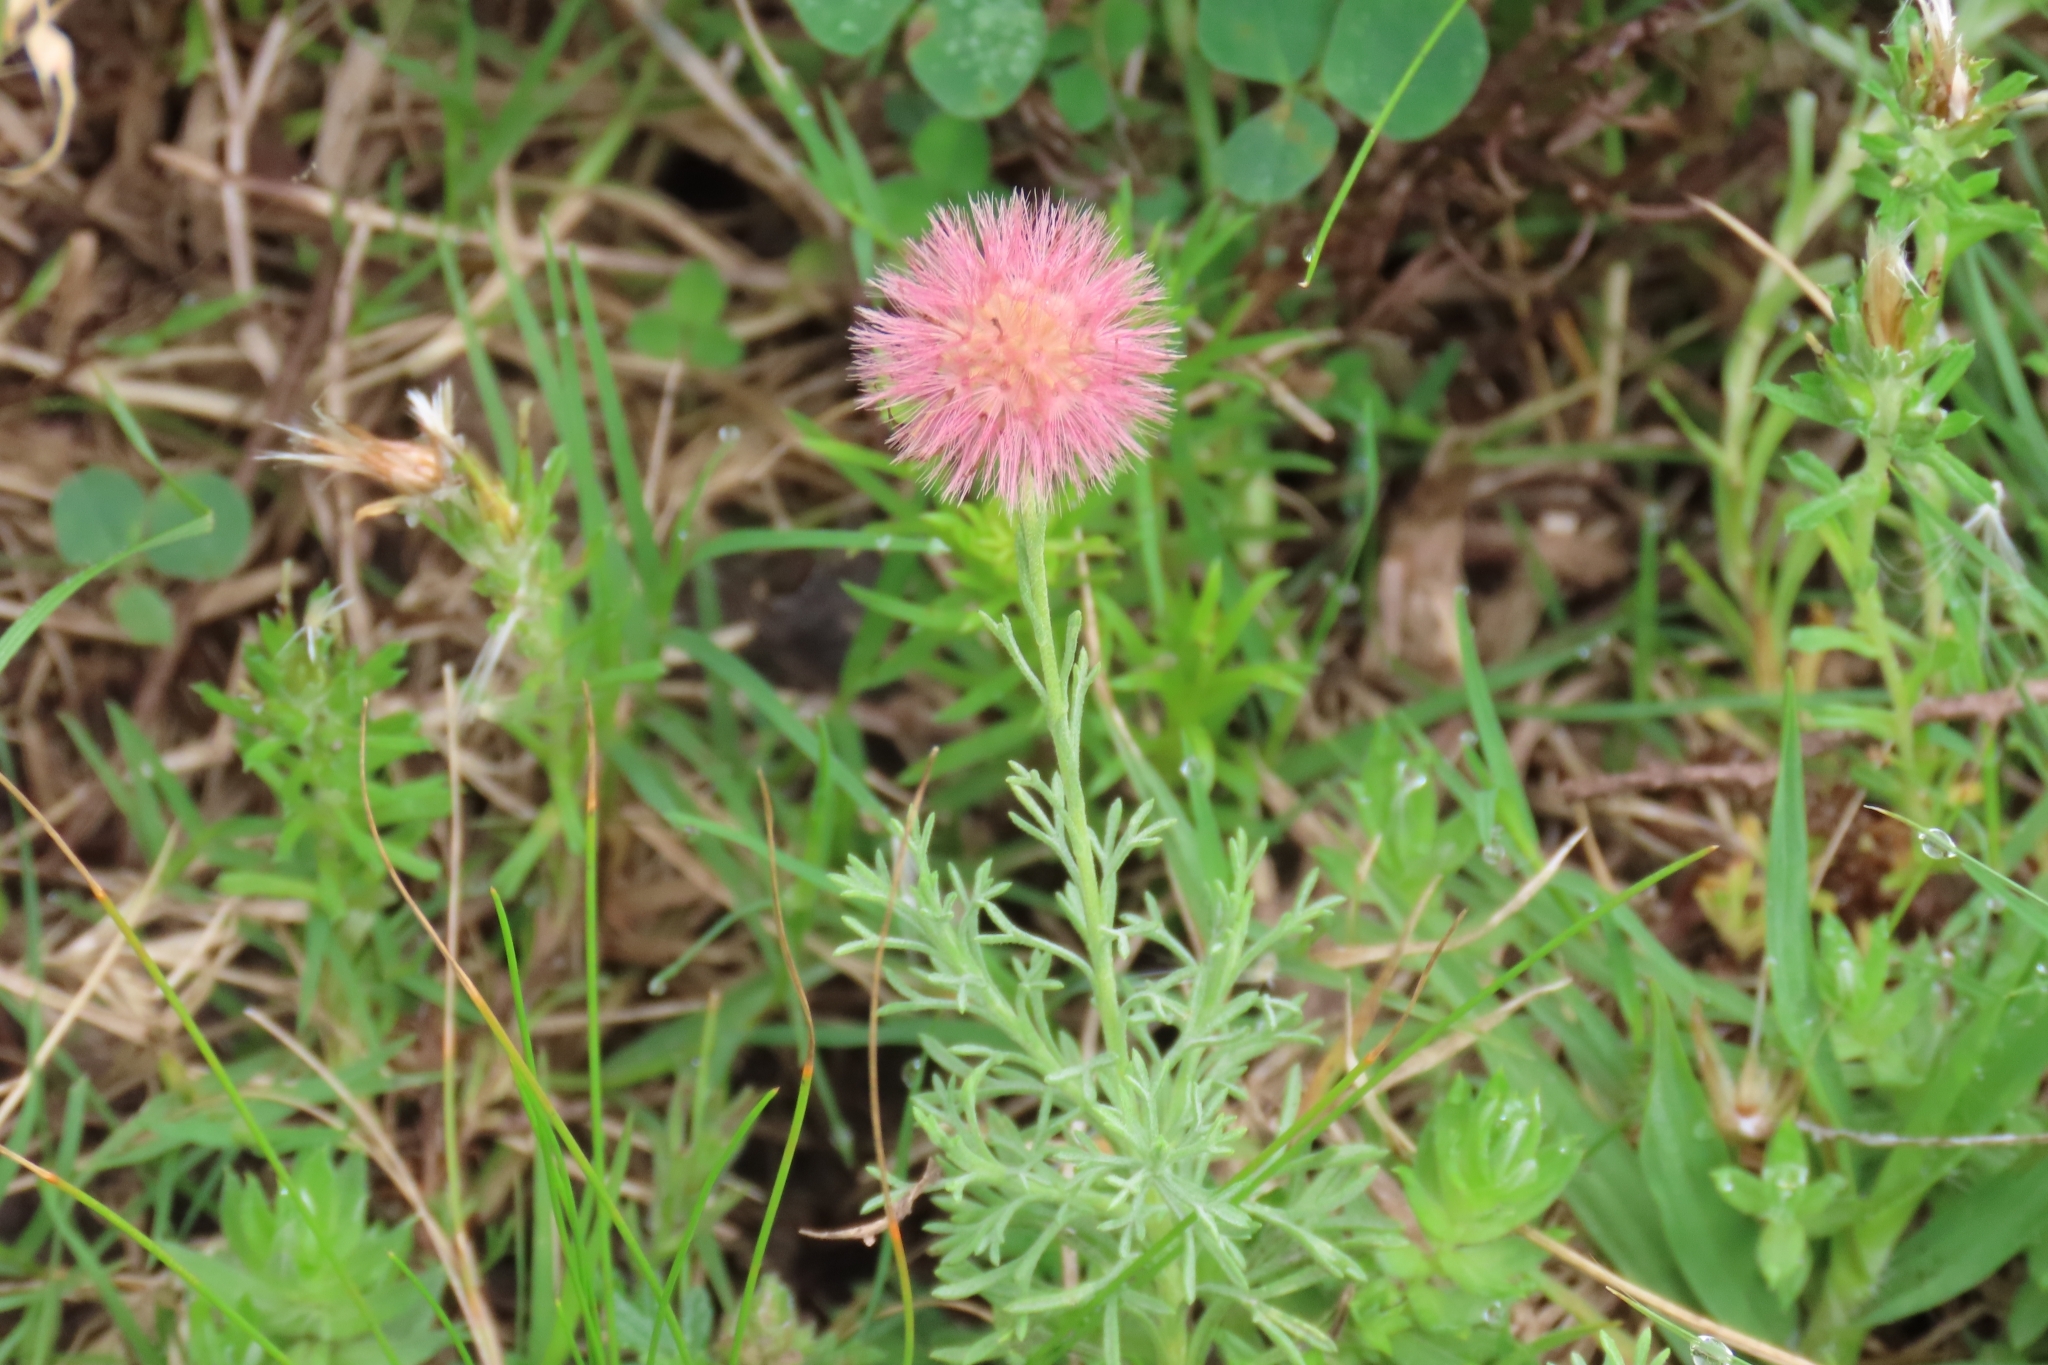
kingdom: Plantae
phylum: Tracheophyta
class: Magnoliopsida
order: Asterales
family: Asteraceae
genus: Microgyne
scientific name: Microgyne trifurcata
